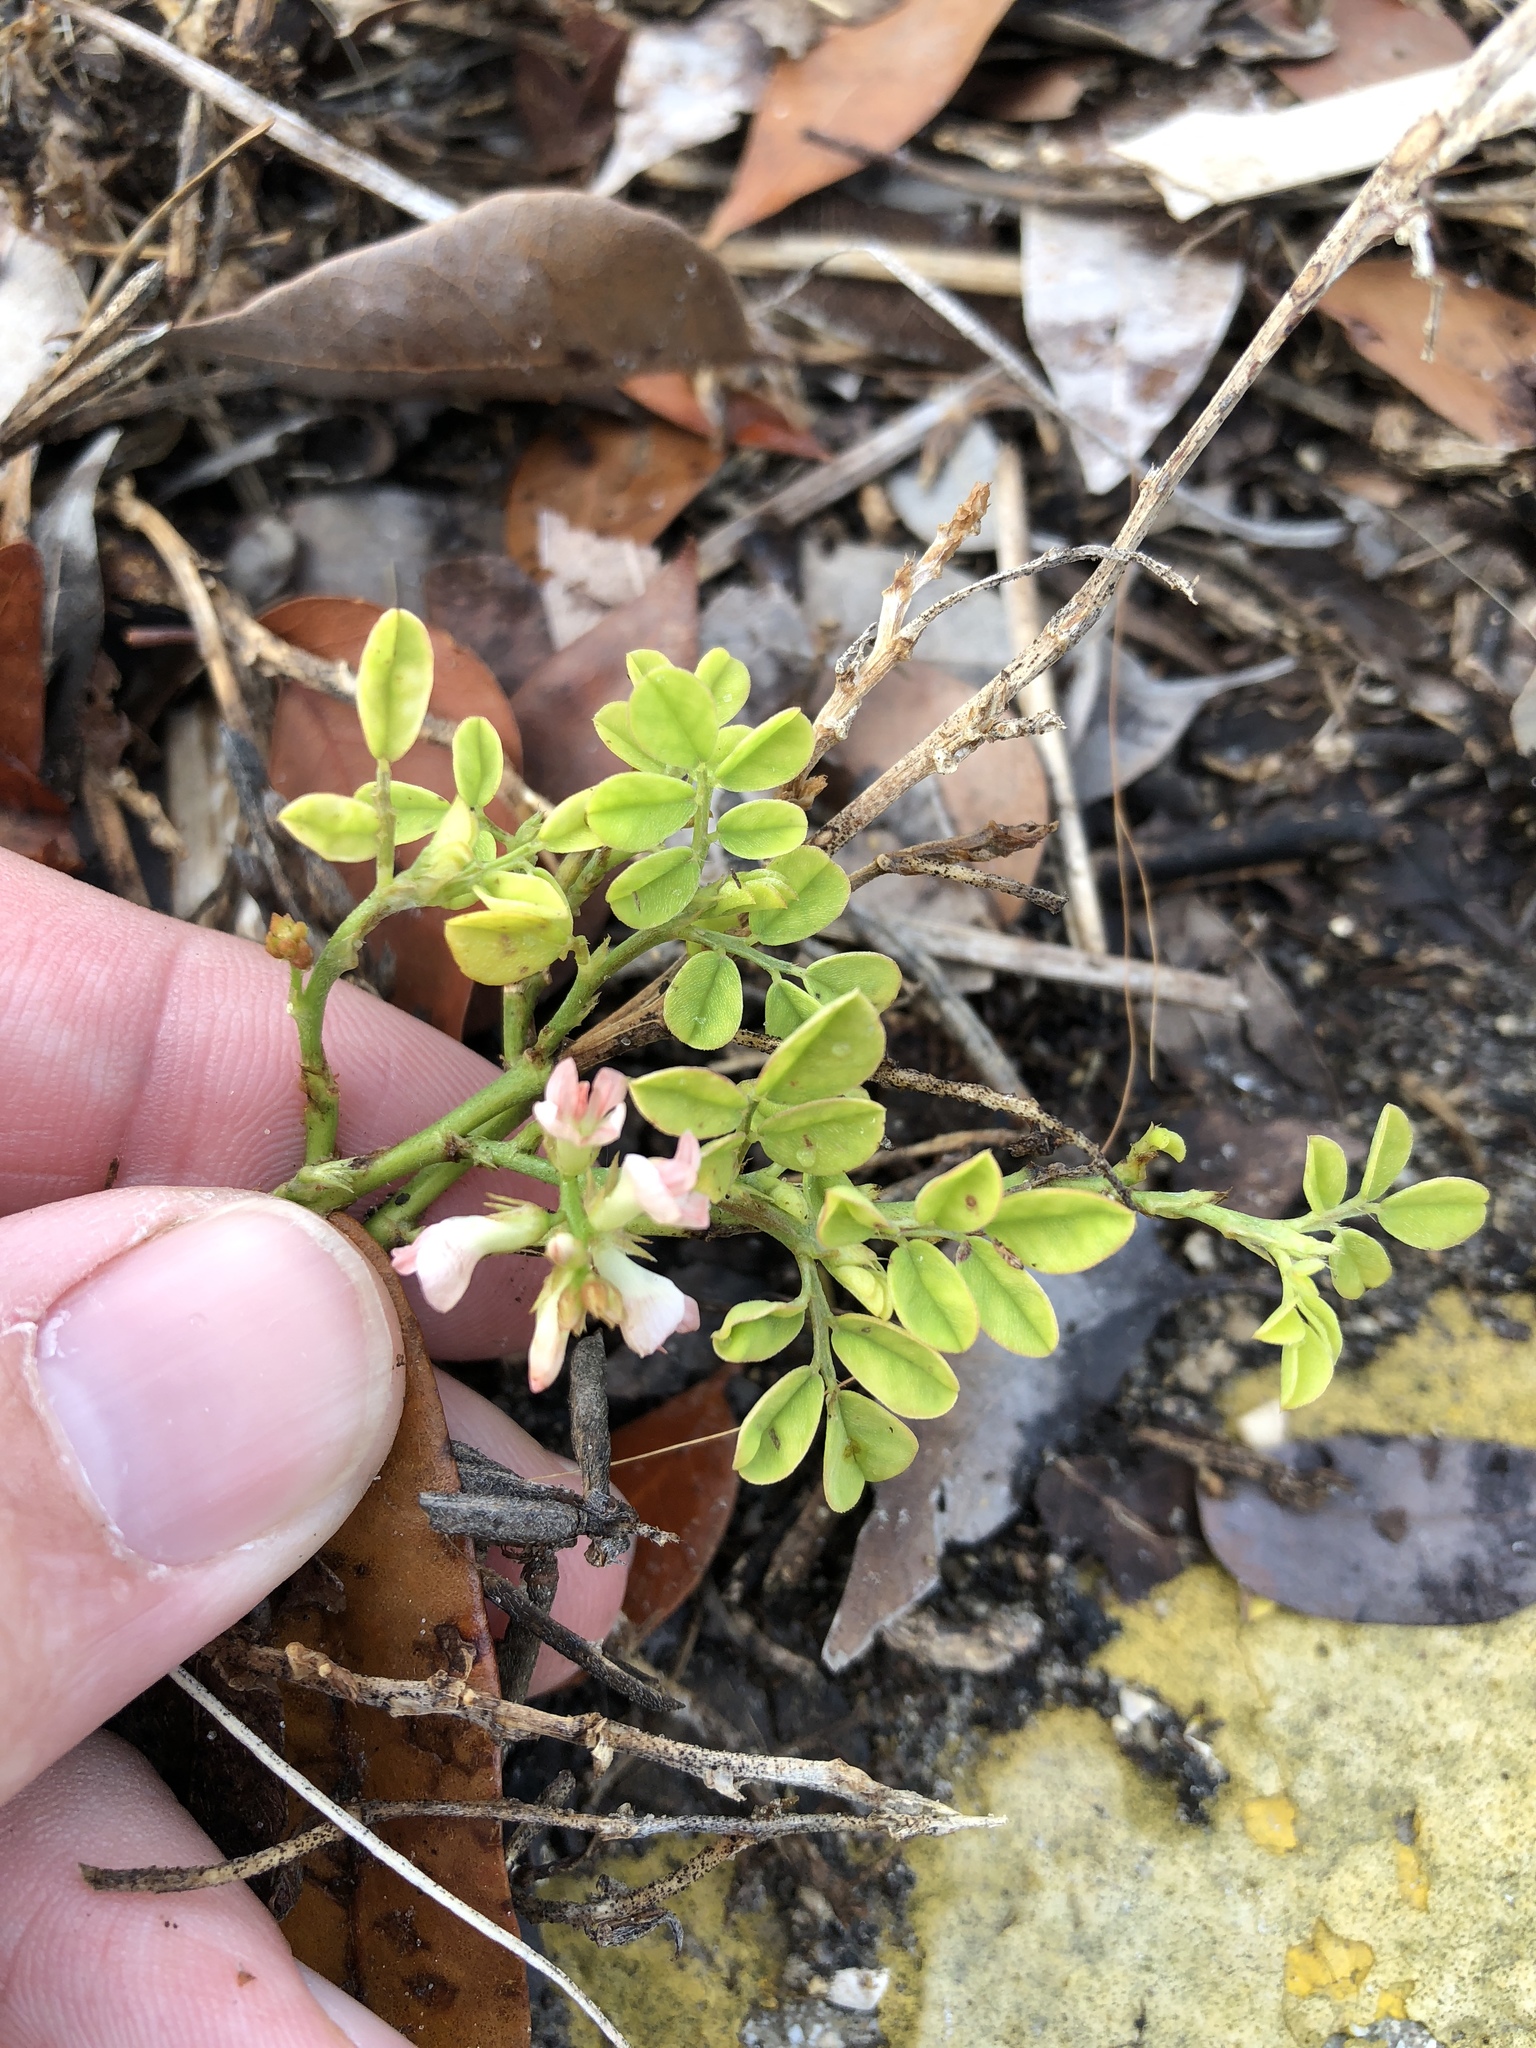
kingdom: Plantae
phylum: Tracheophyta
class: Magnoliopsida
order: Fabales
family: Fabaceae
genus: Indigofera
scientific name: Indigofera spicata
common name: Creeping indigo
